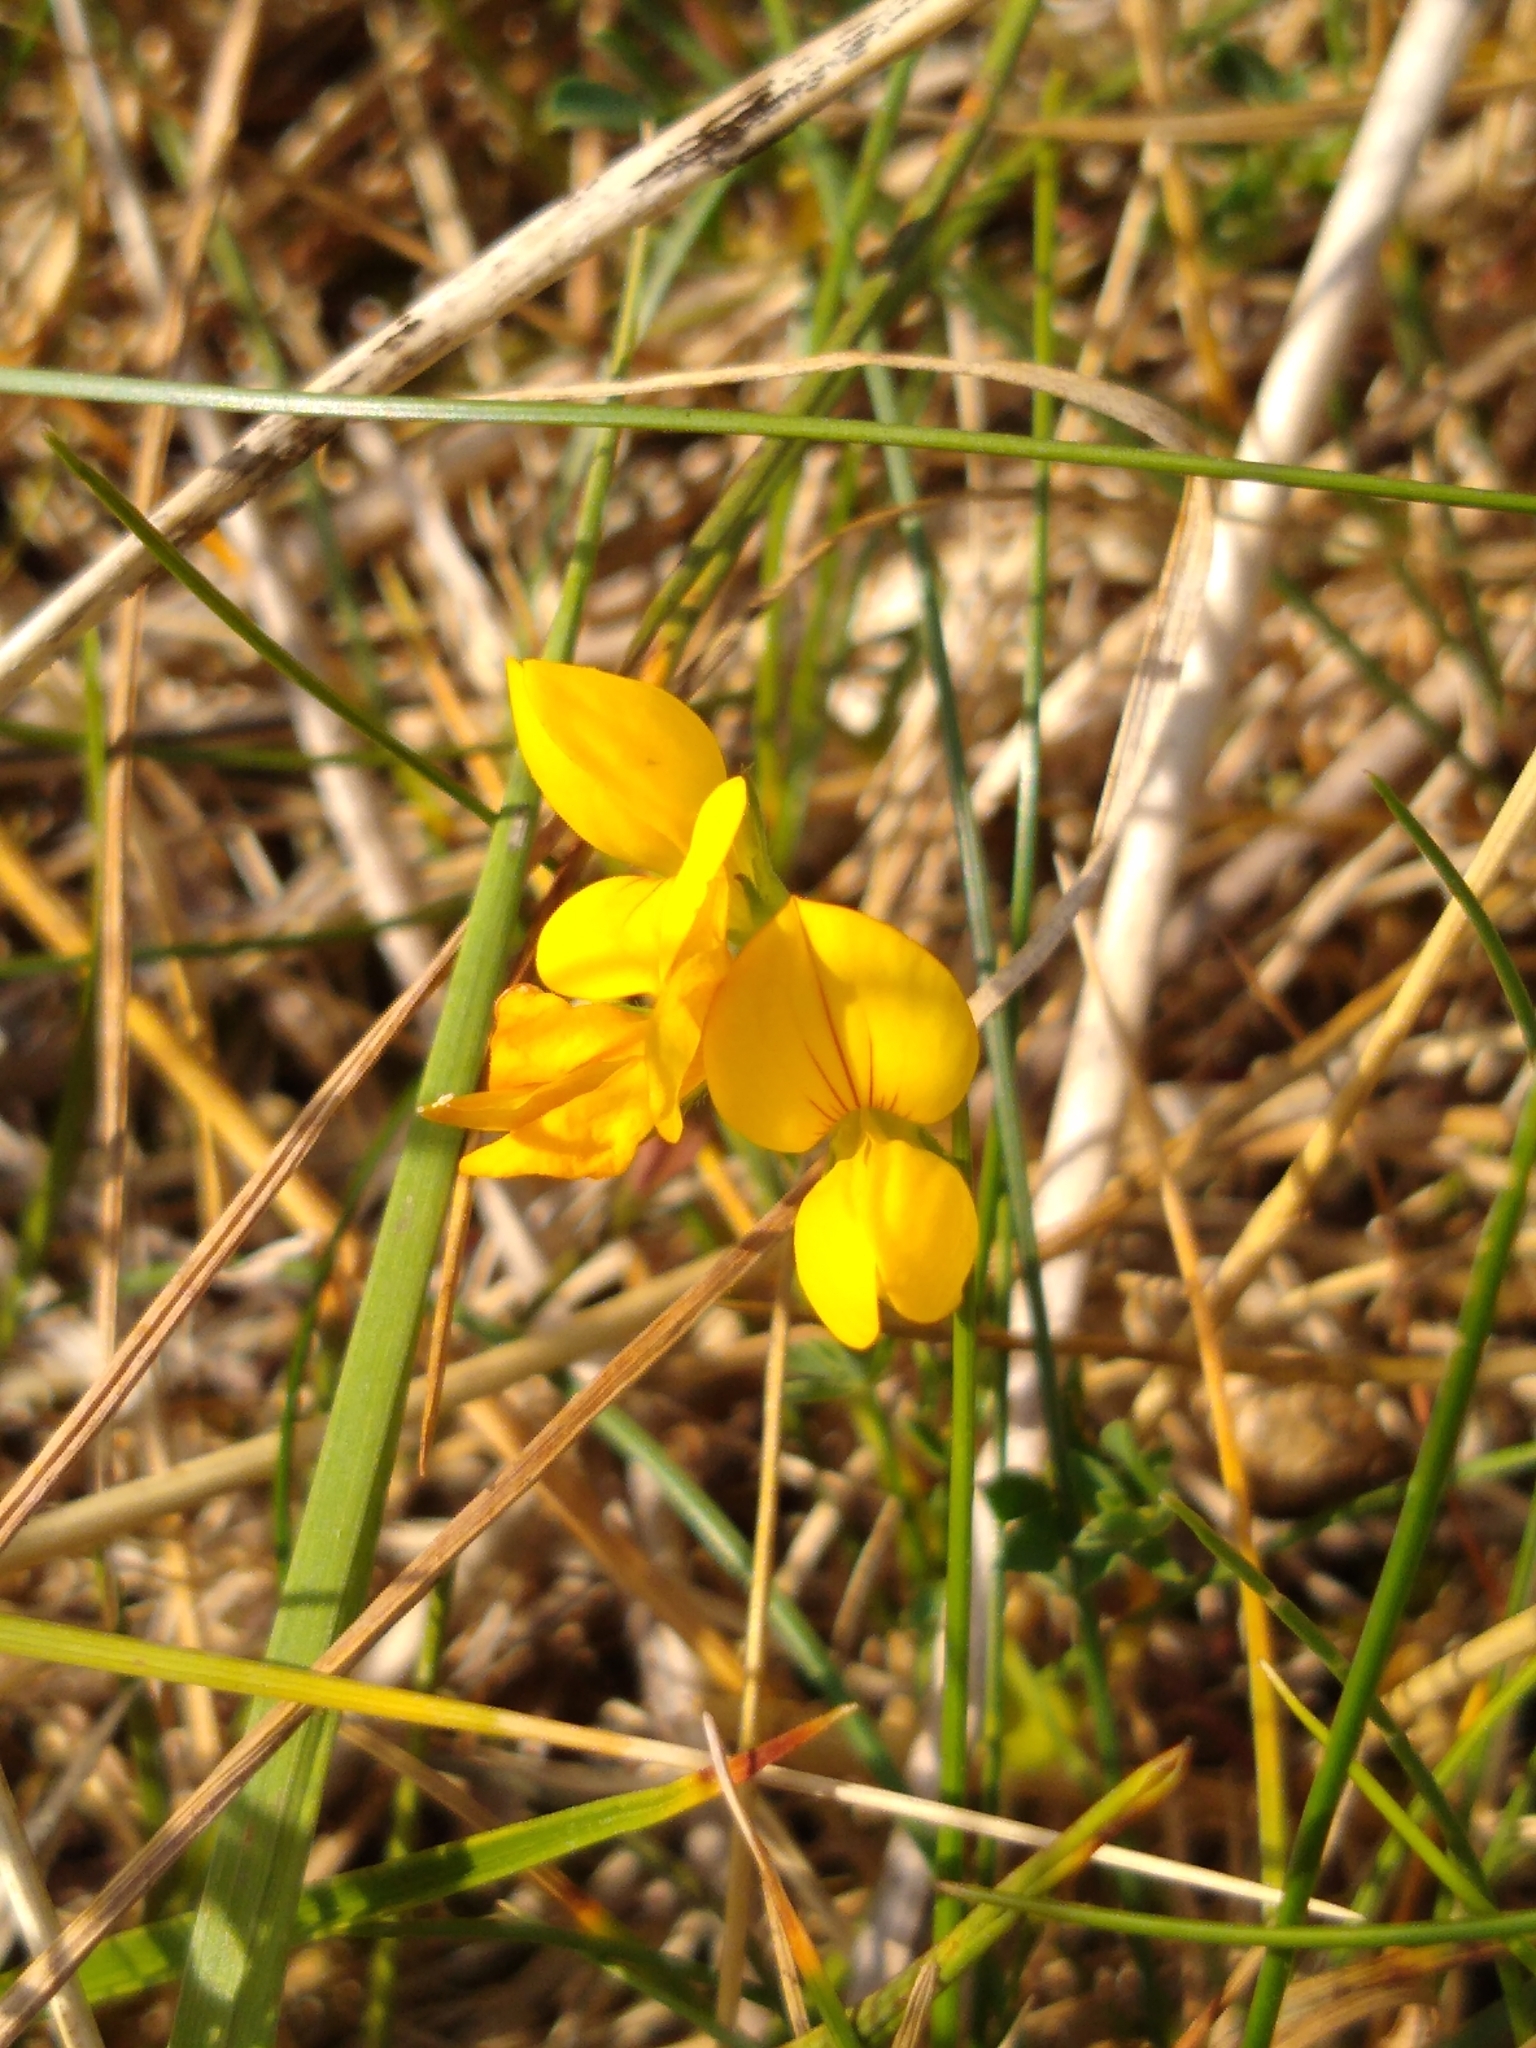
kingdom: Plantae
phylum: Tracheophyta
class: Magnoliopsida
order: Fabales
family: Fabaceae
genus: Lotus
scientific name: Lotus corniculatus
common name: Common bird's-foot-trefoil
